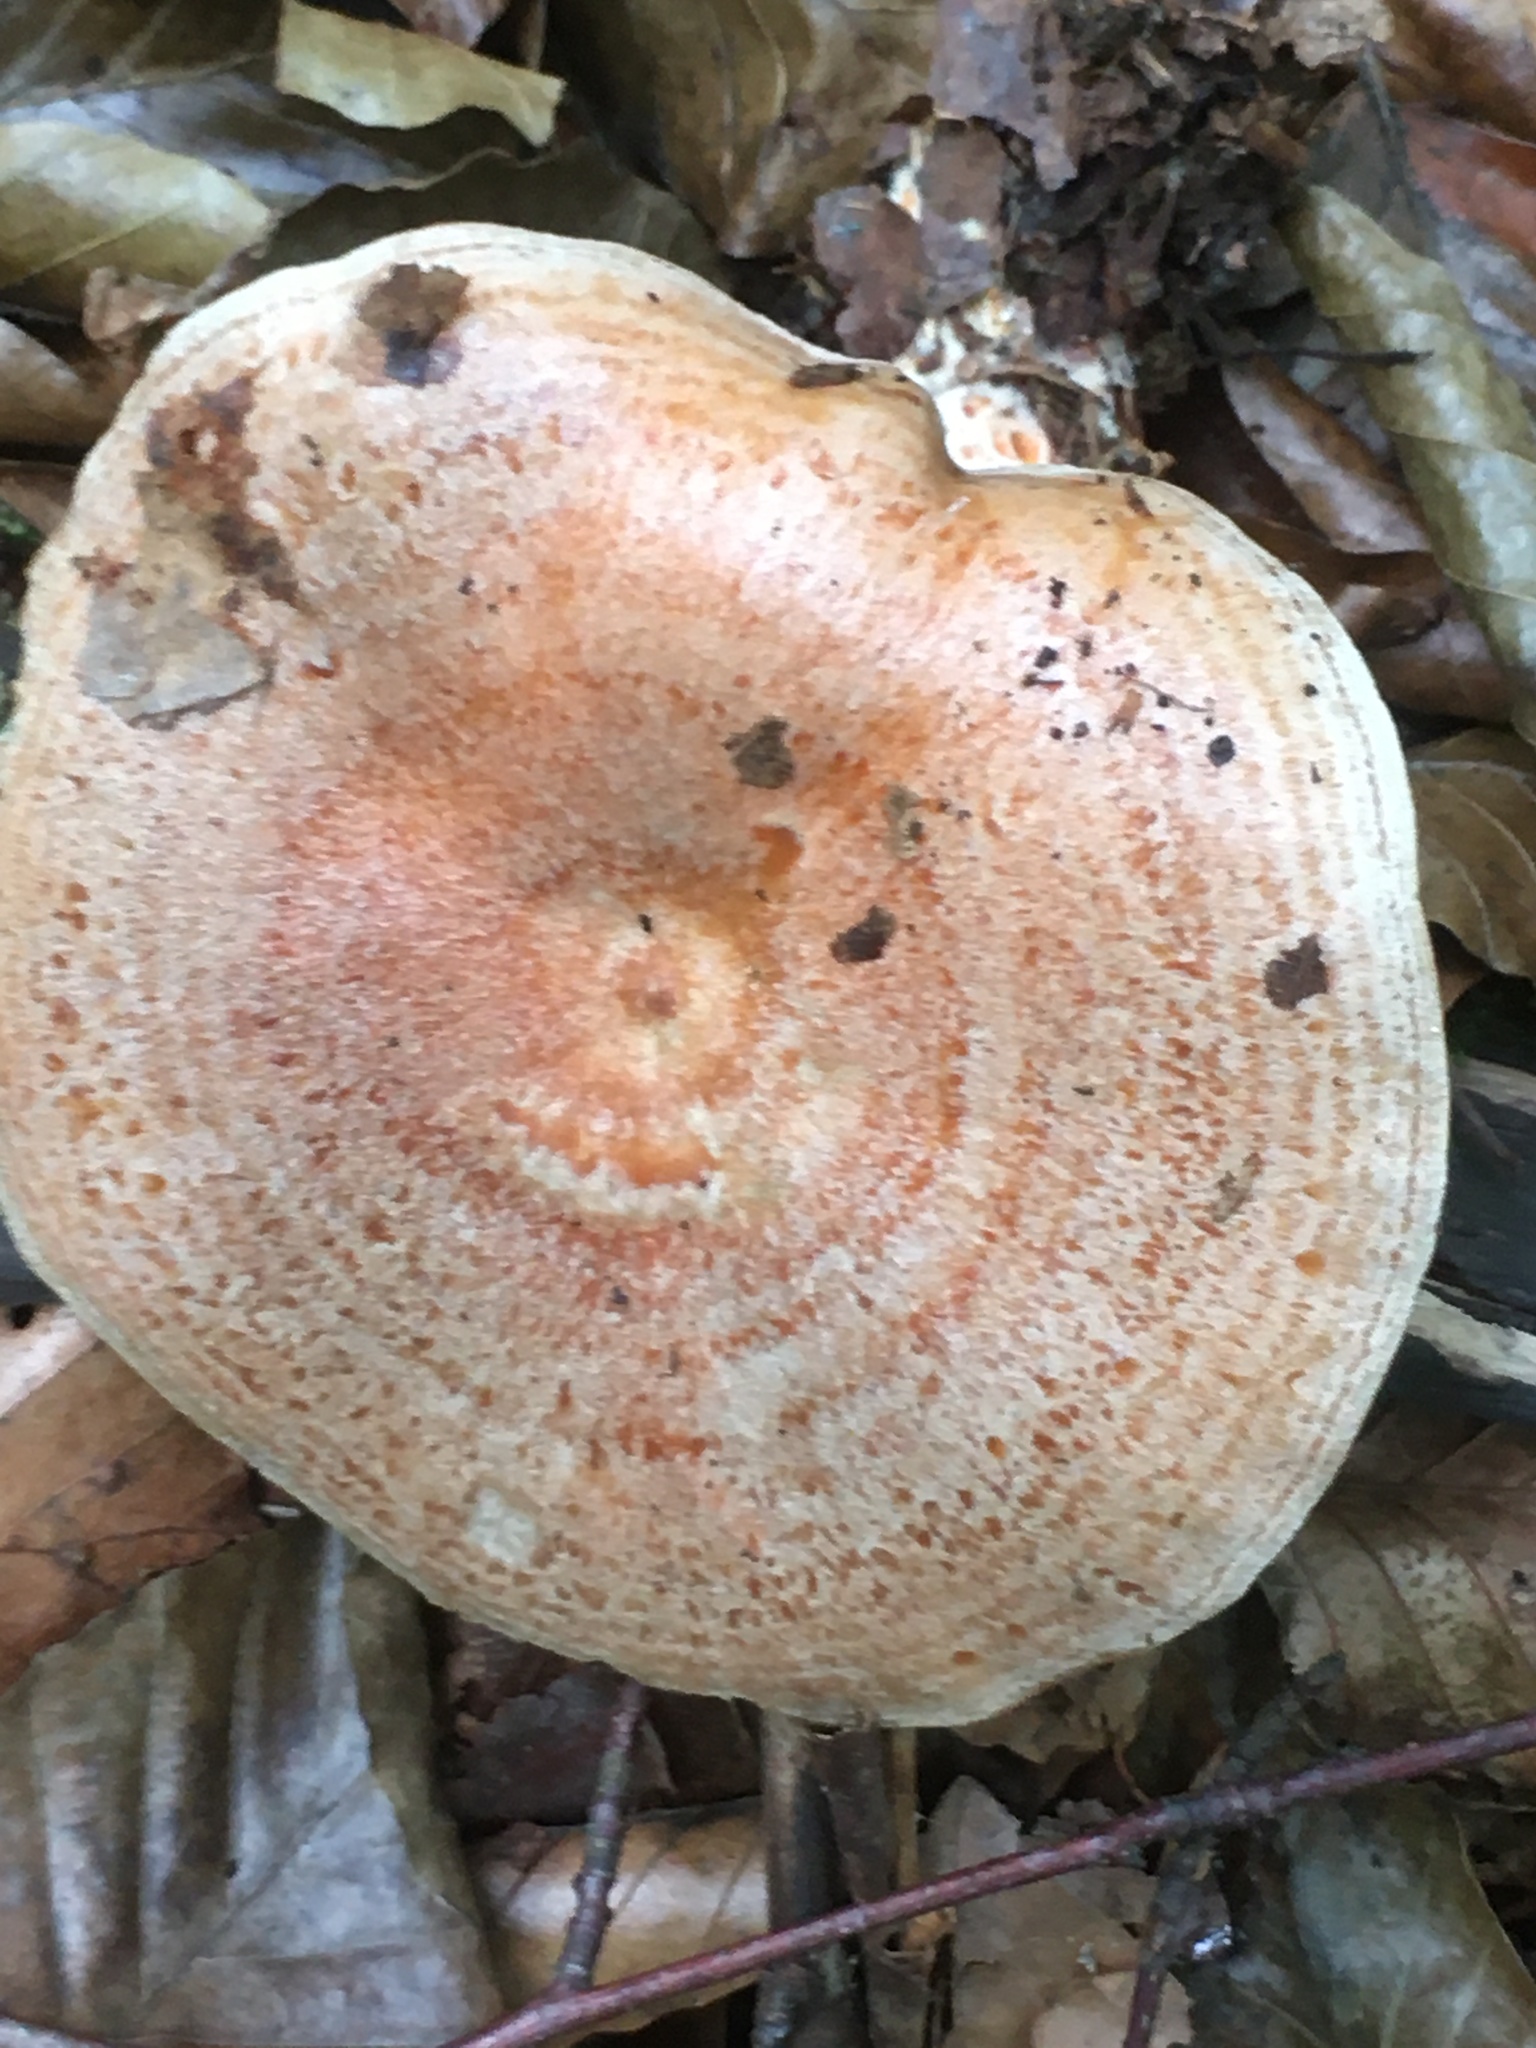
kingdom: Fungi
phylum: Basidiomycota
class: Agaricomycetes
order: Russulales
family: Russulaceae
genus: Lactarius
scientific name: Lactarius deliciosus
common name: Saffron milk-cap
